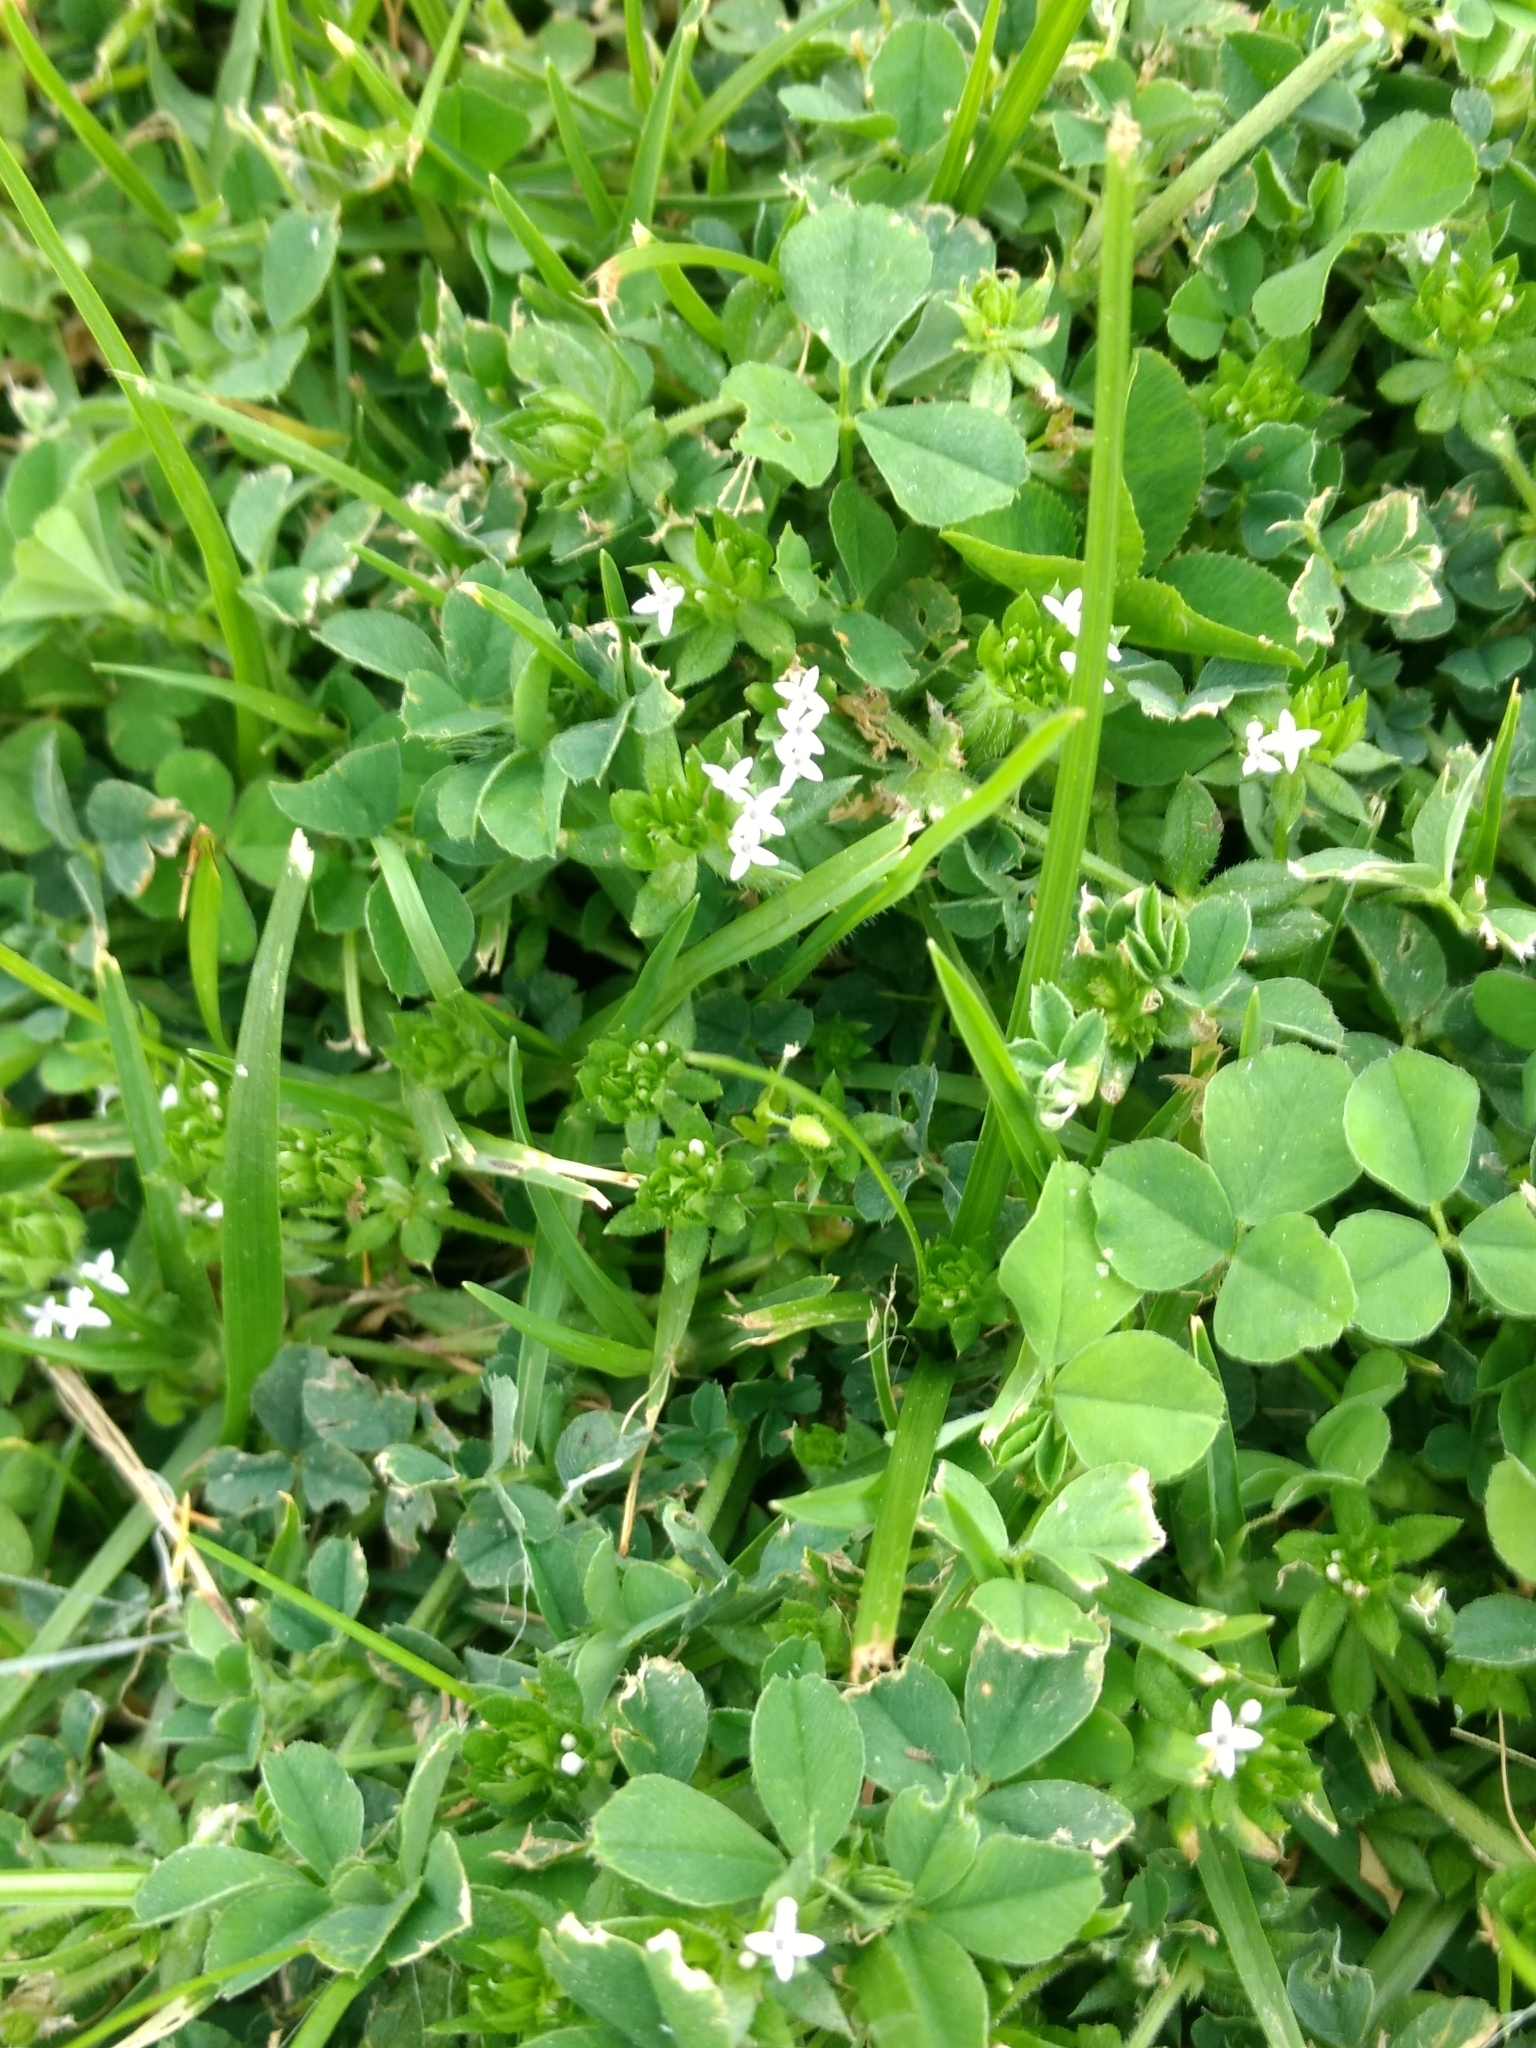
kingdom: Plantae
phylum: Tracheophyta
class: Magnoliopsida
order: Gentianales
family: Rubiaceae
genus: Sherardia
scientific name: Sherardia arvensis
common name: Field madder
